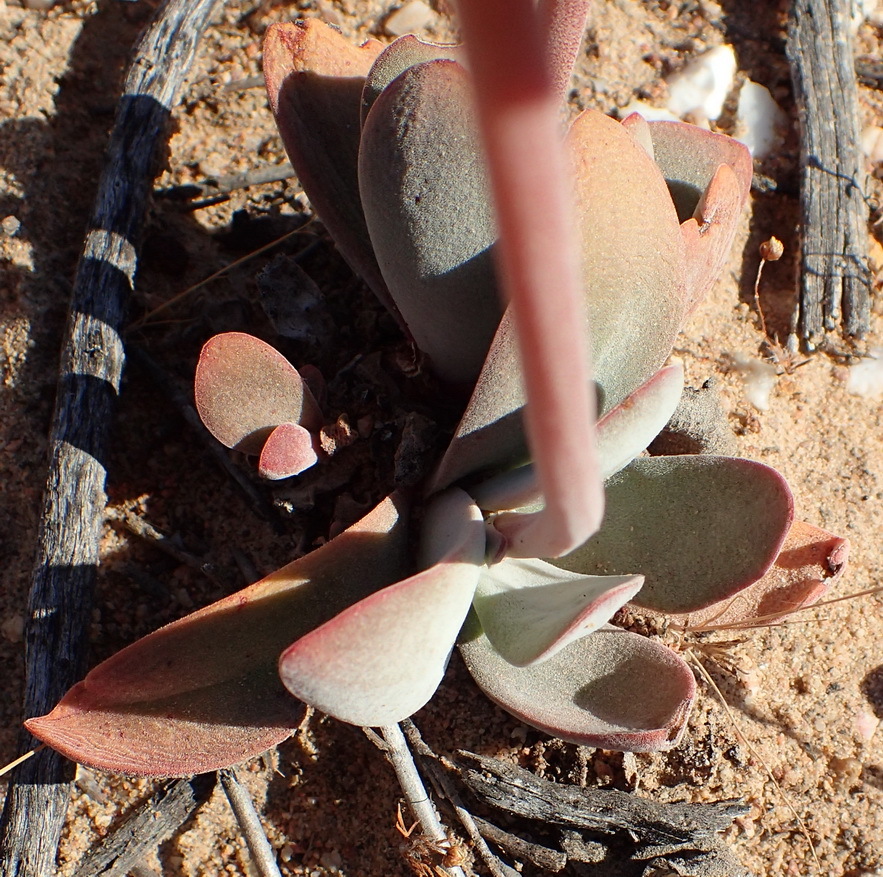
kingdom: Plantae
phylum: Tracheophyta
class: Magnoliopsida
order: Saxifragales
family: Crassulaceae
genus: Crassula
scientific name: Crassula cotyledonis
